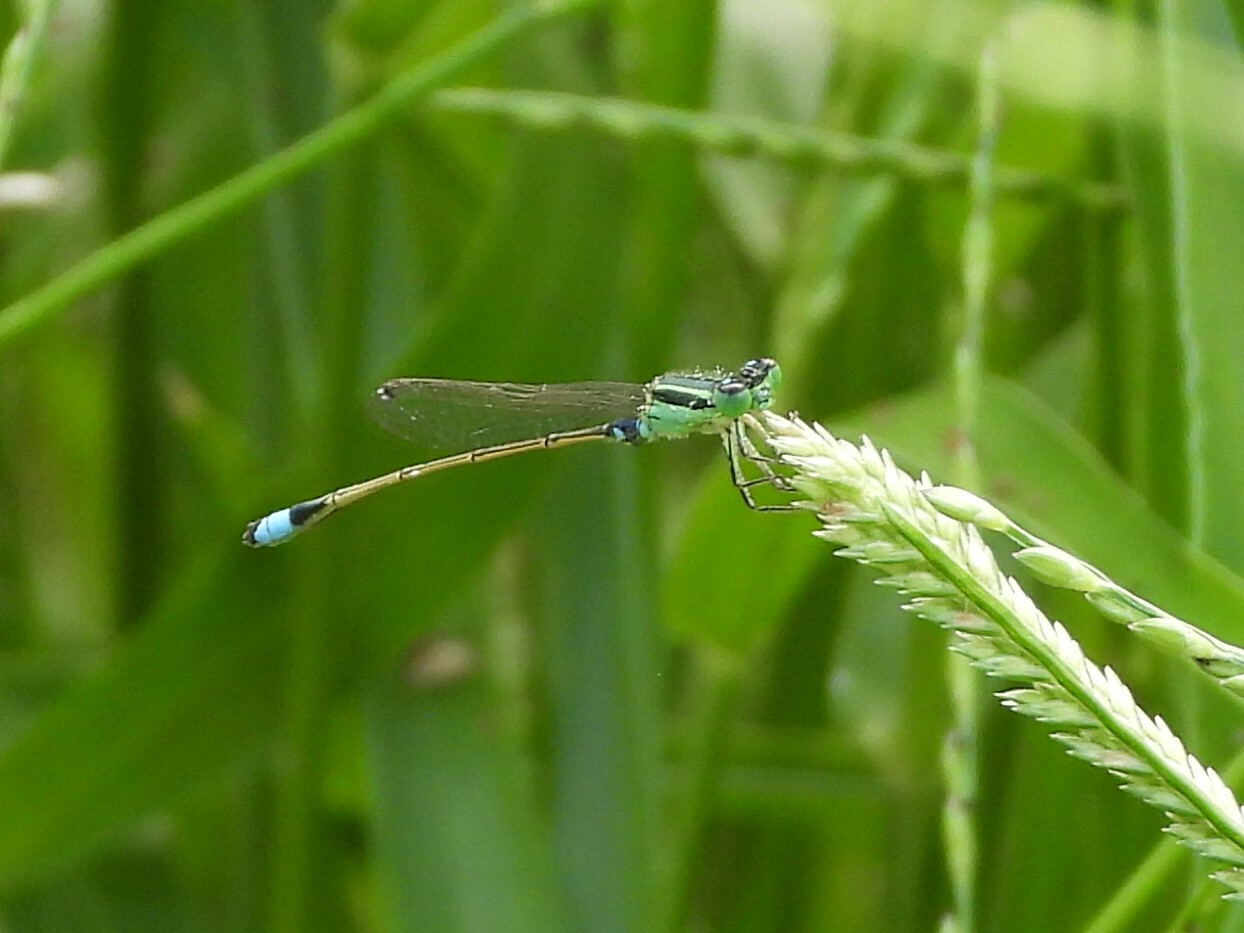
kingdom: Animalia
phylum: Arthropoda
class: Insecta
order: Odonata
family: Coenagrionidae
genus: Ischnura
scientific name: Ischnura senegalensis
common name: Tropical bluetail
